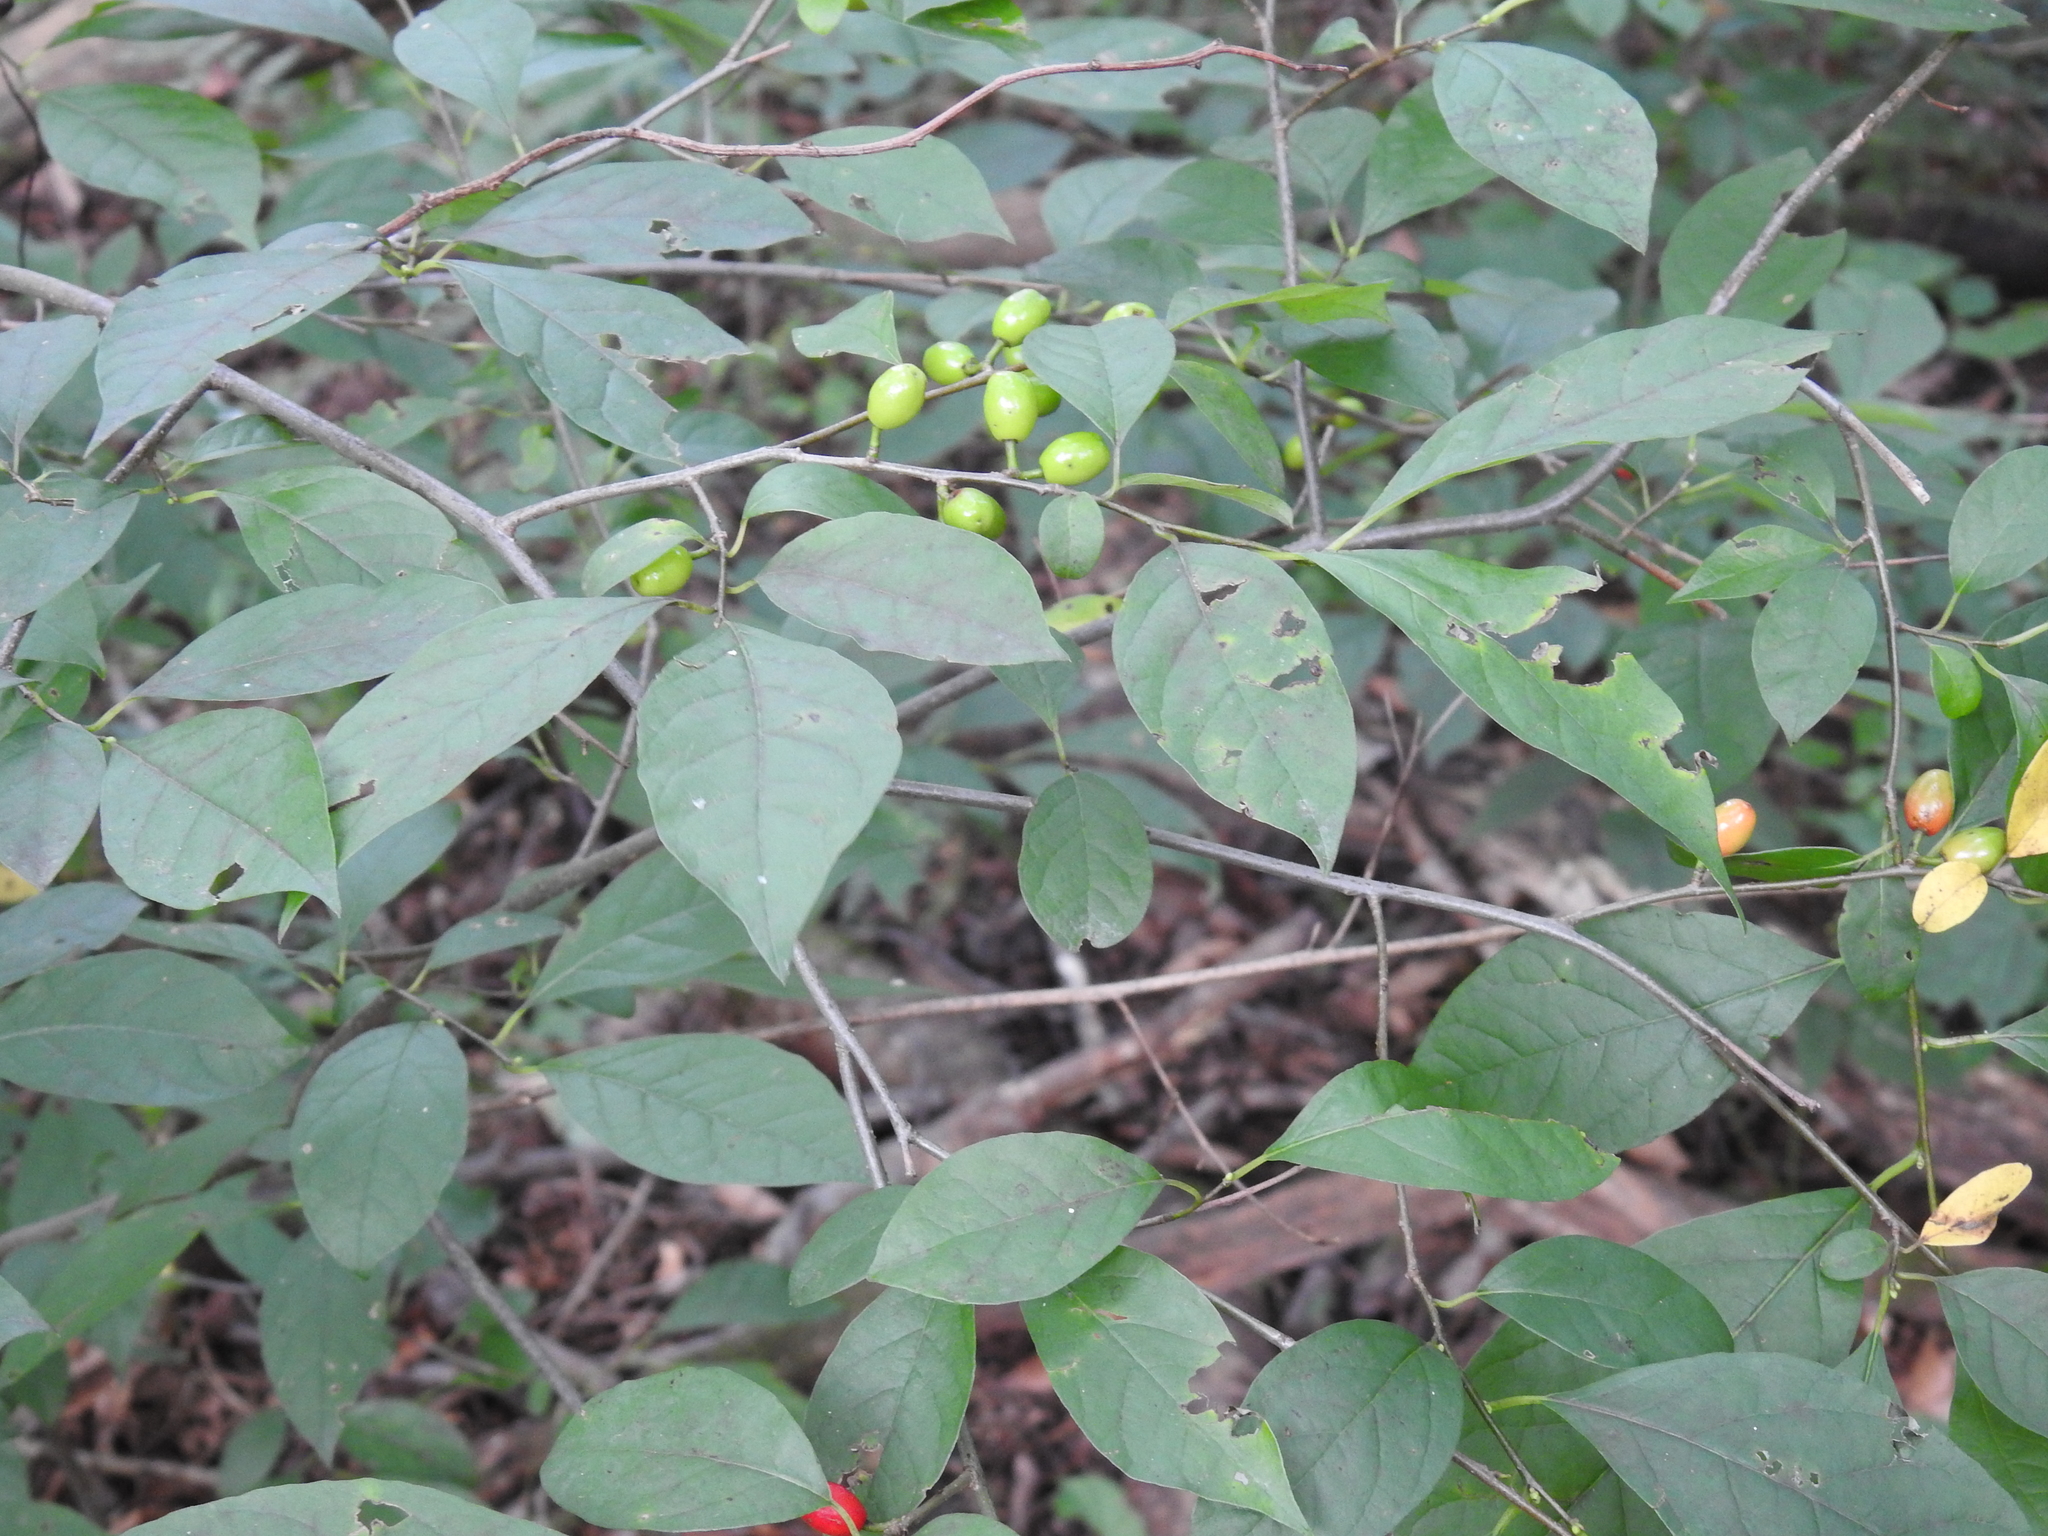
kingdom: Plantae
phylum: Tracheophyta
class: Magnoliopsida
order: Laurales
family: Lauraceae
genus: Lindera
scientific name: Lindera benzoin
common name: Spicebush
